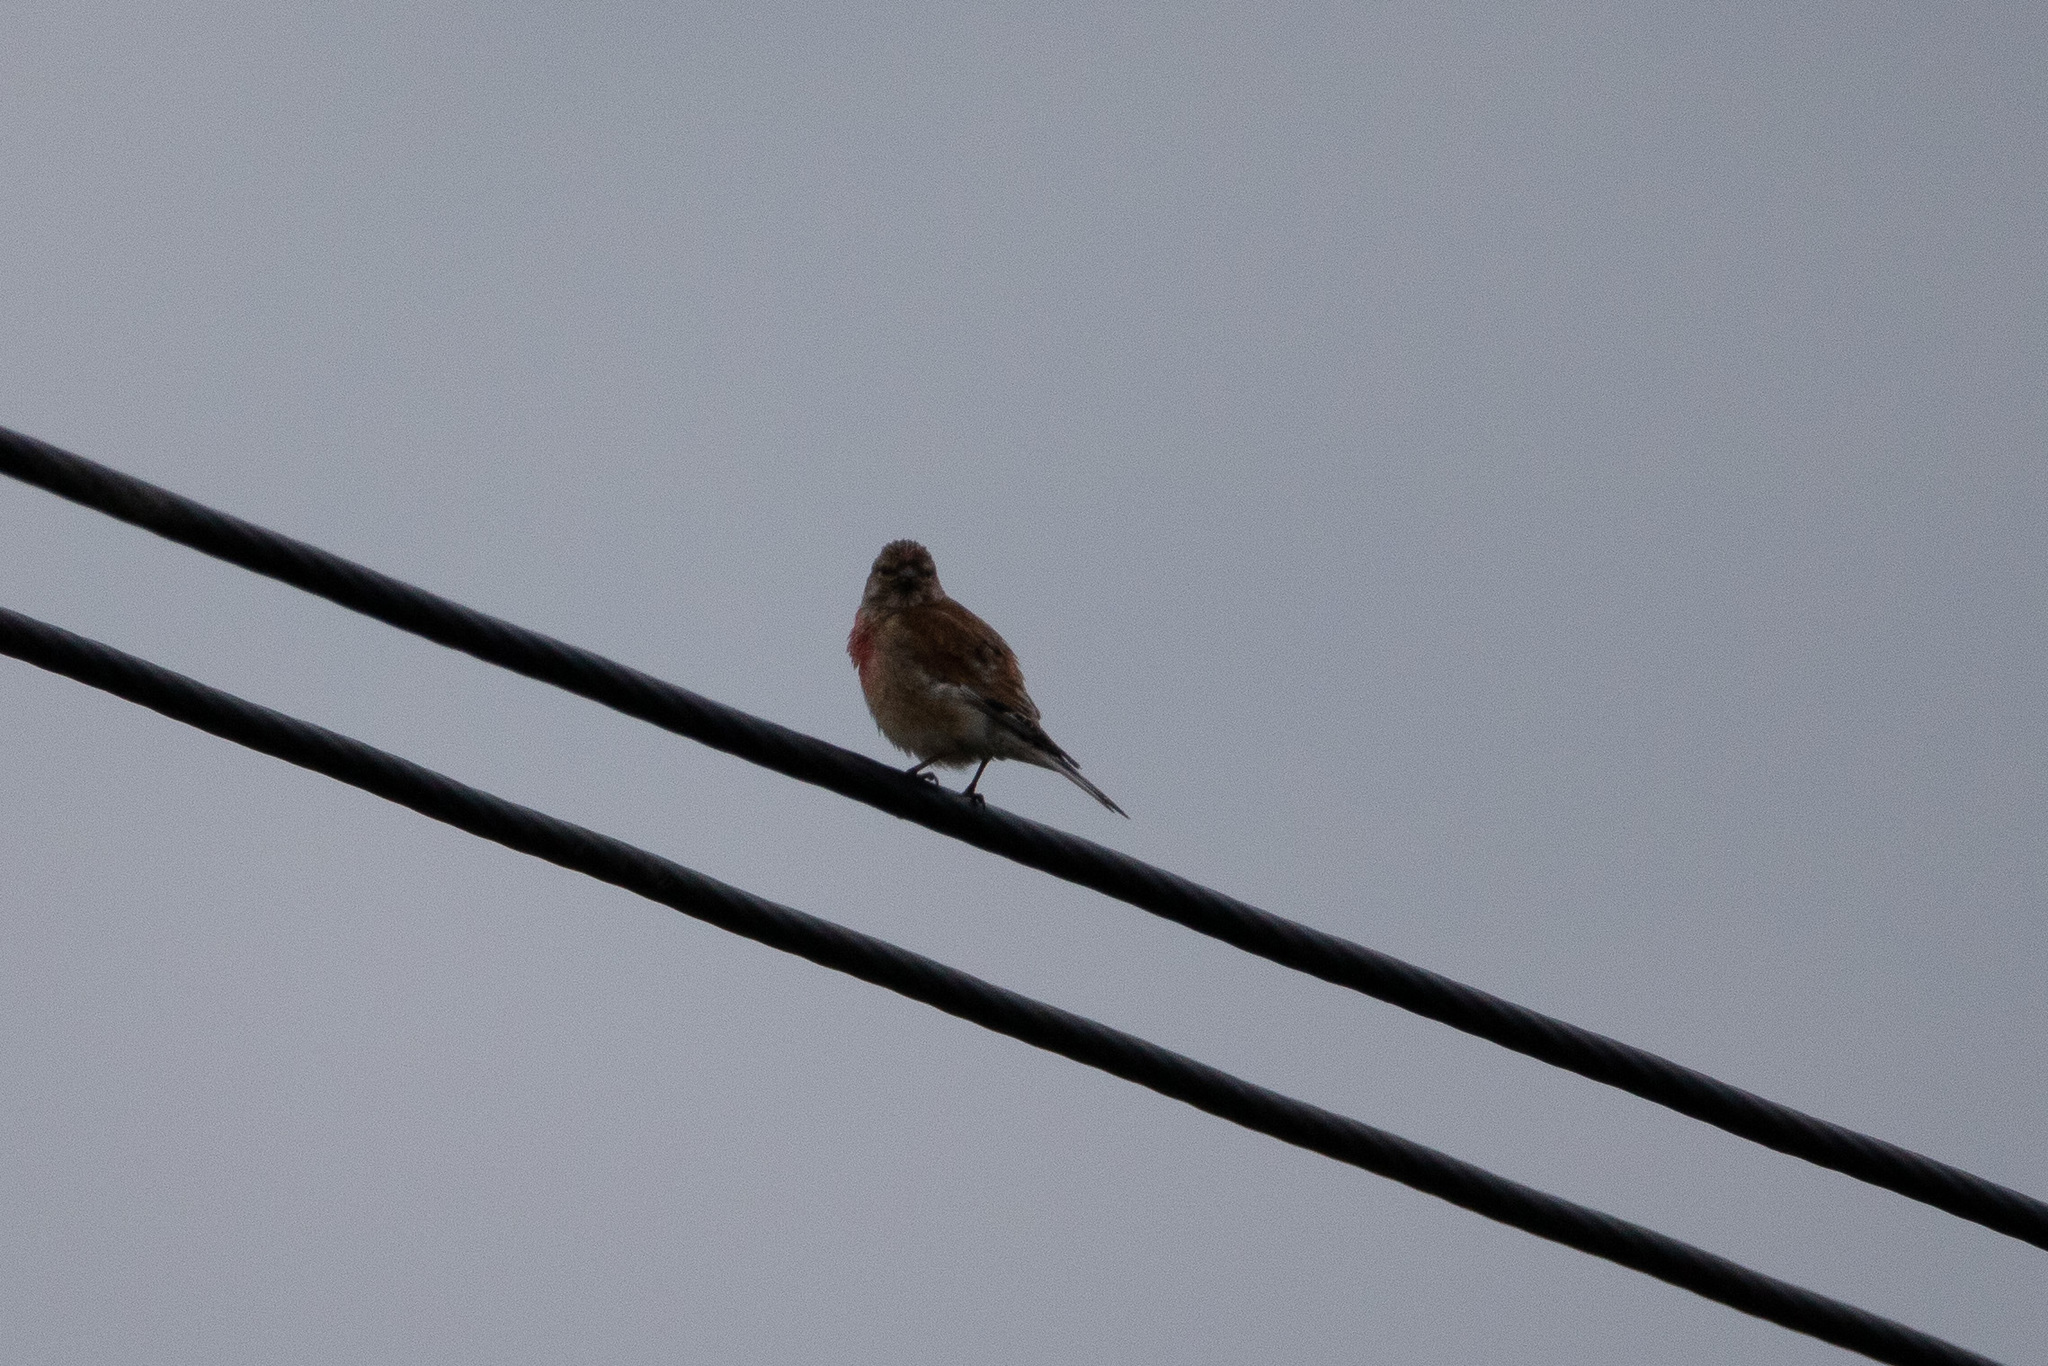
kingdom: Animalia
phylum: Chordata
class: Aves
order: Passeriformes
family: Fringillidae
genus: Linaria
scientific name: Linaria cannabina
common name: Common linnet
